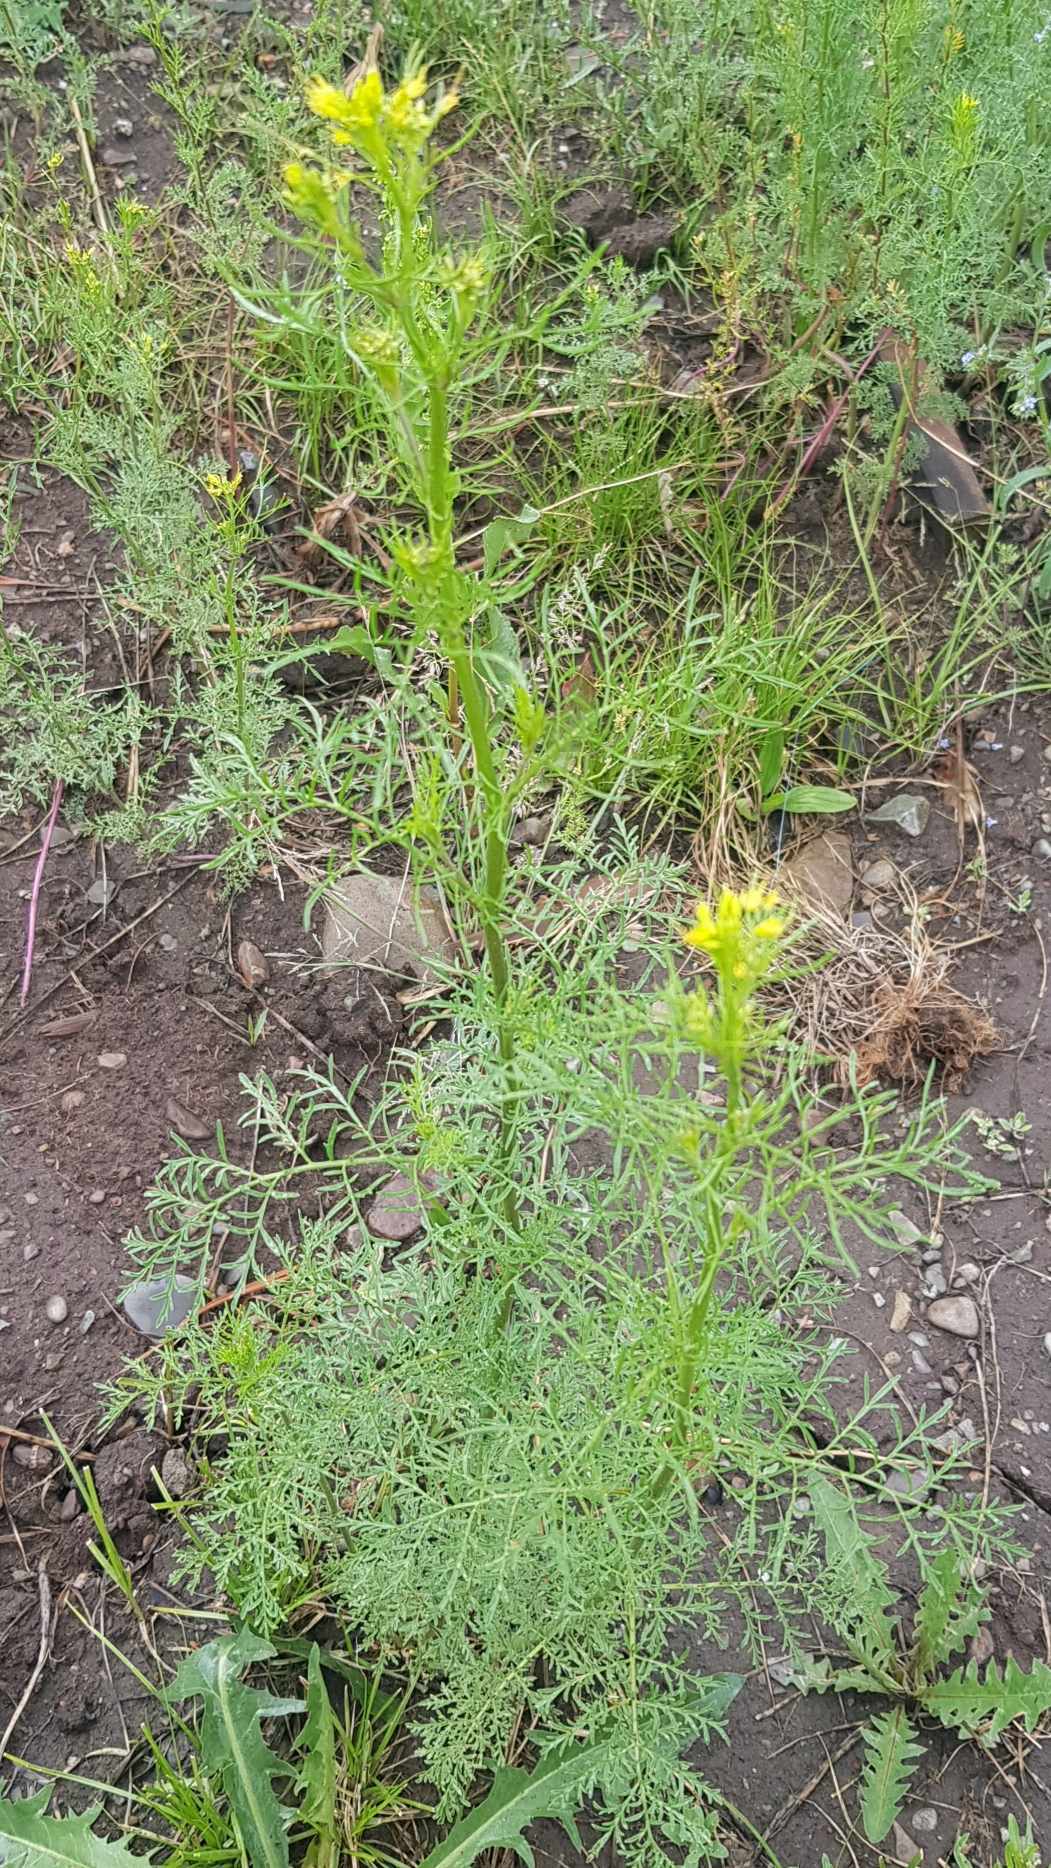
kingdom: Plantae
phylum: Tracheophyta
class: Magnoliopsida
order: Brassicales
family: Brassicaceae
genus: Descurainia
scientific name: Descurainia sophia
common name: Flixweed
